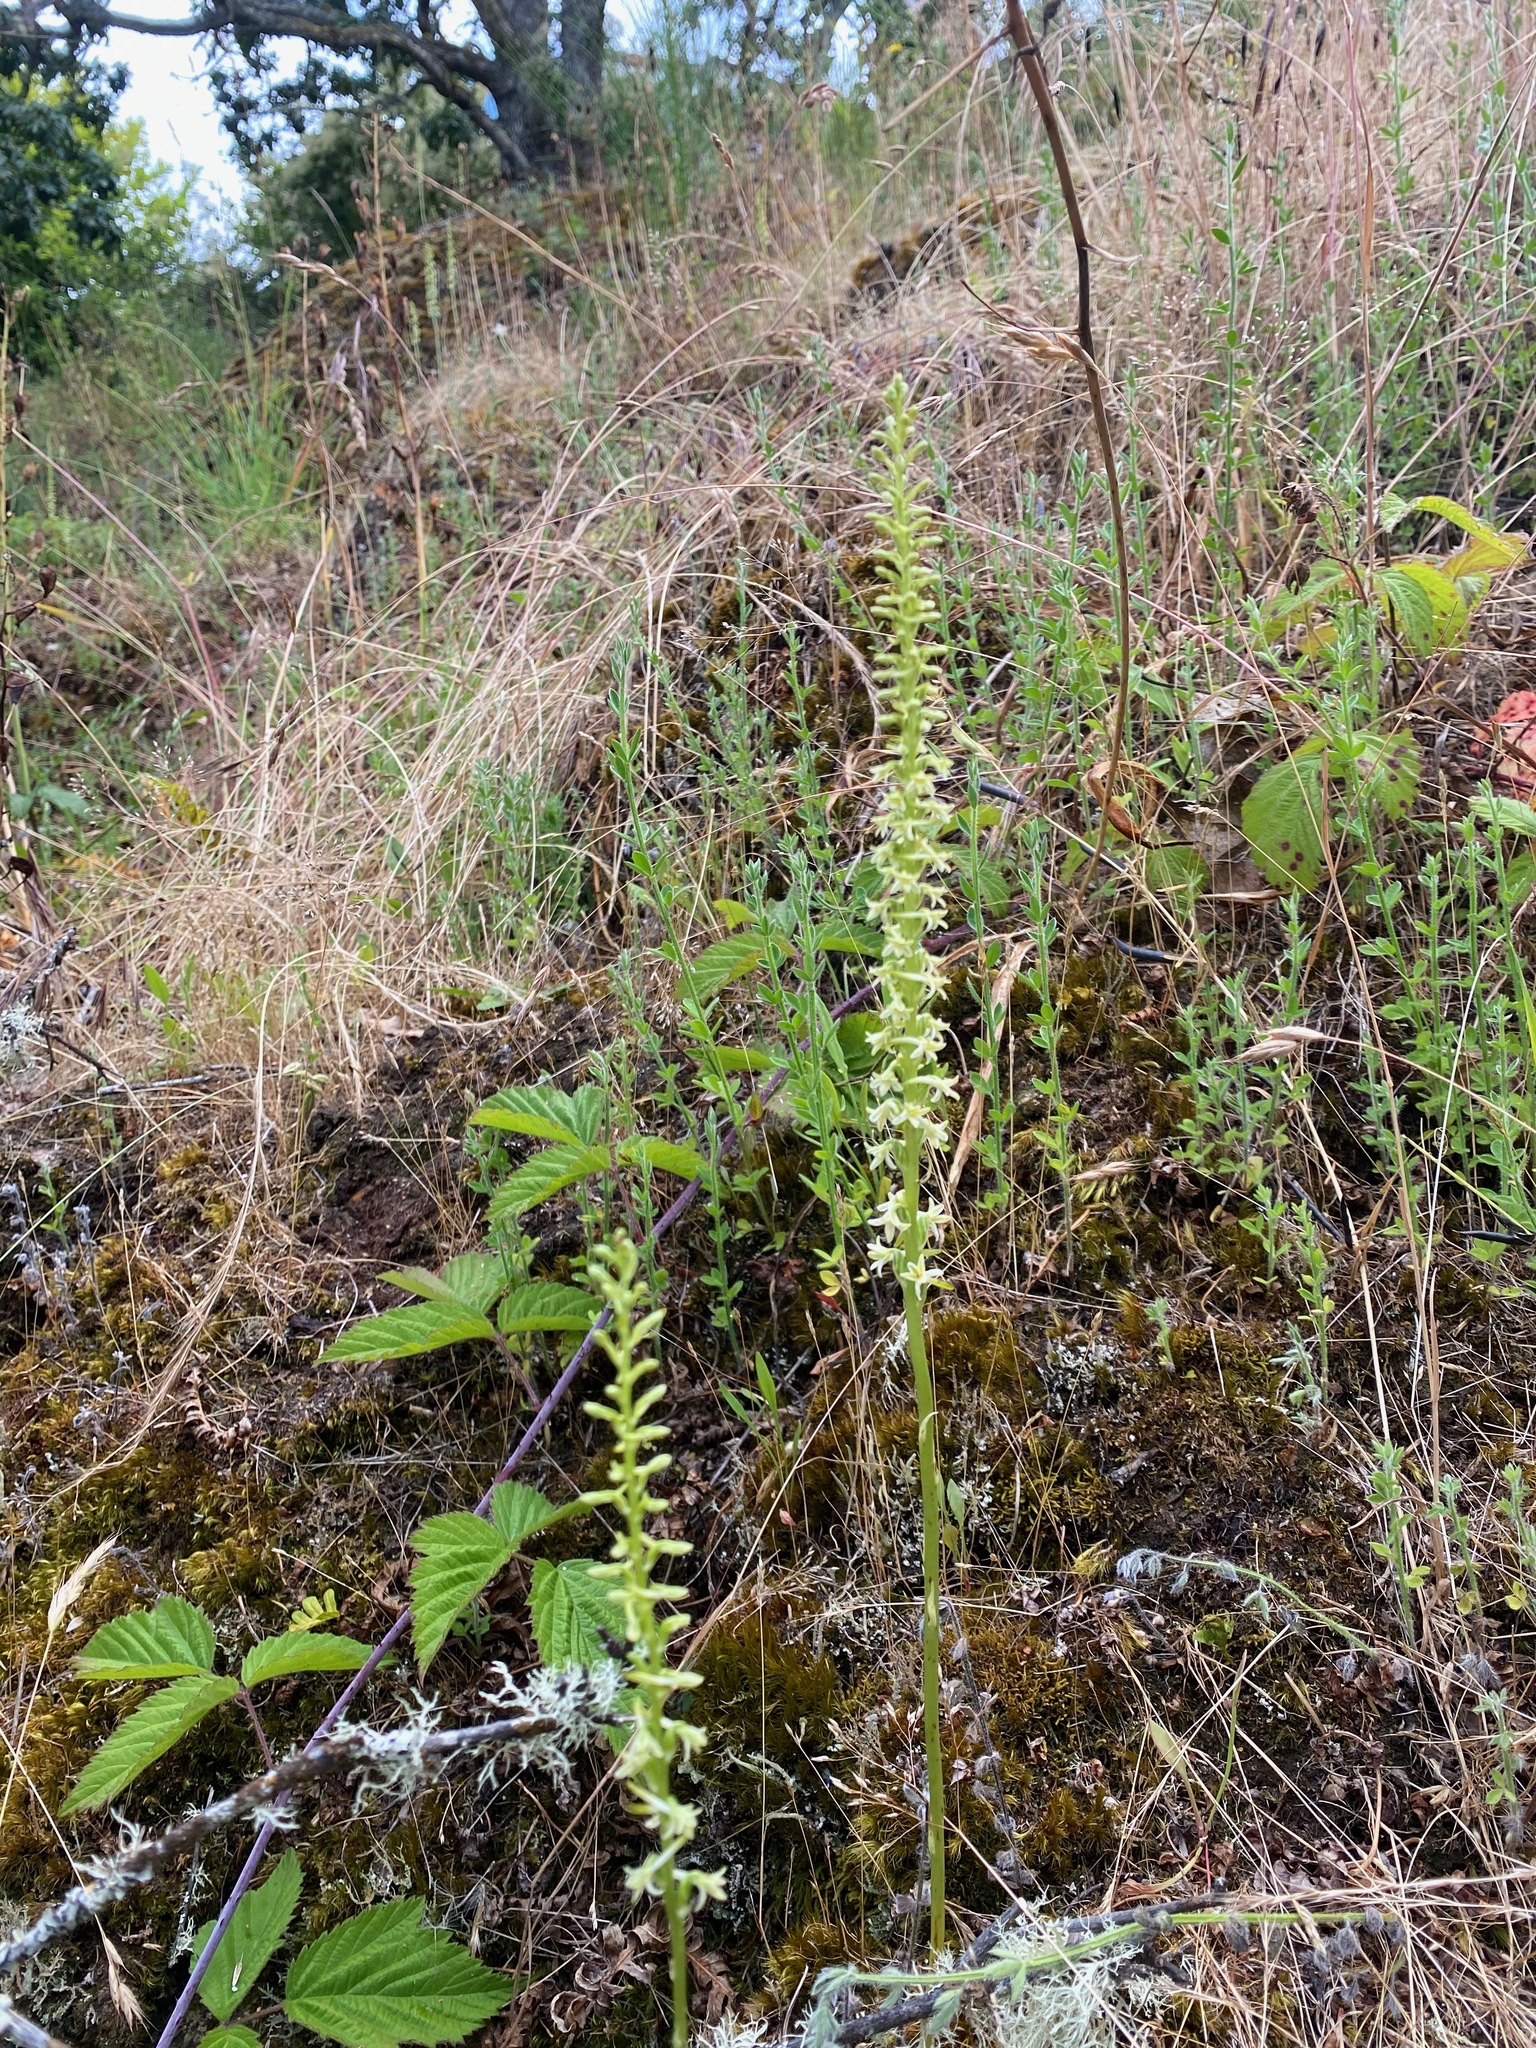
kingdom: Plantae
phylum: Tracheophyta
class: Liliopsida
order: Asparagales
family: Orchidaceae
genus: Platanthera
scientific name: Platanthera transversa
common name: Royal rein orchid
